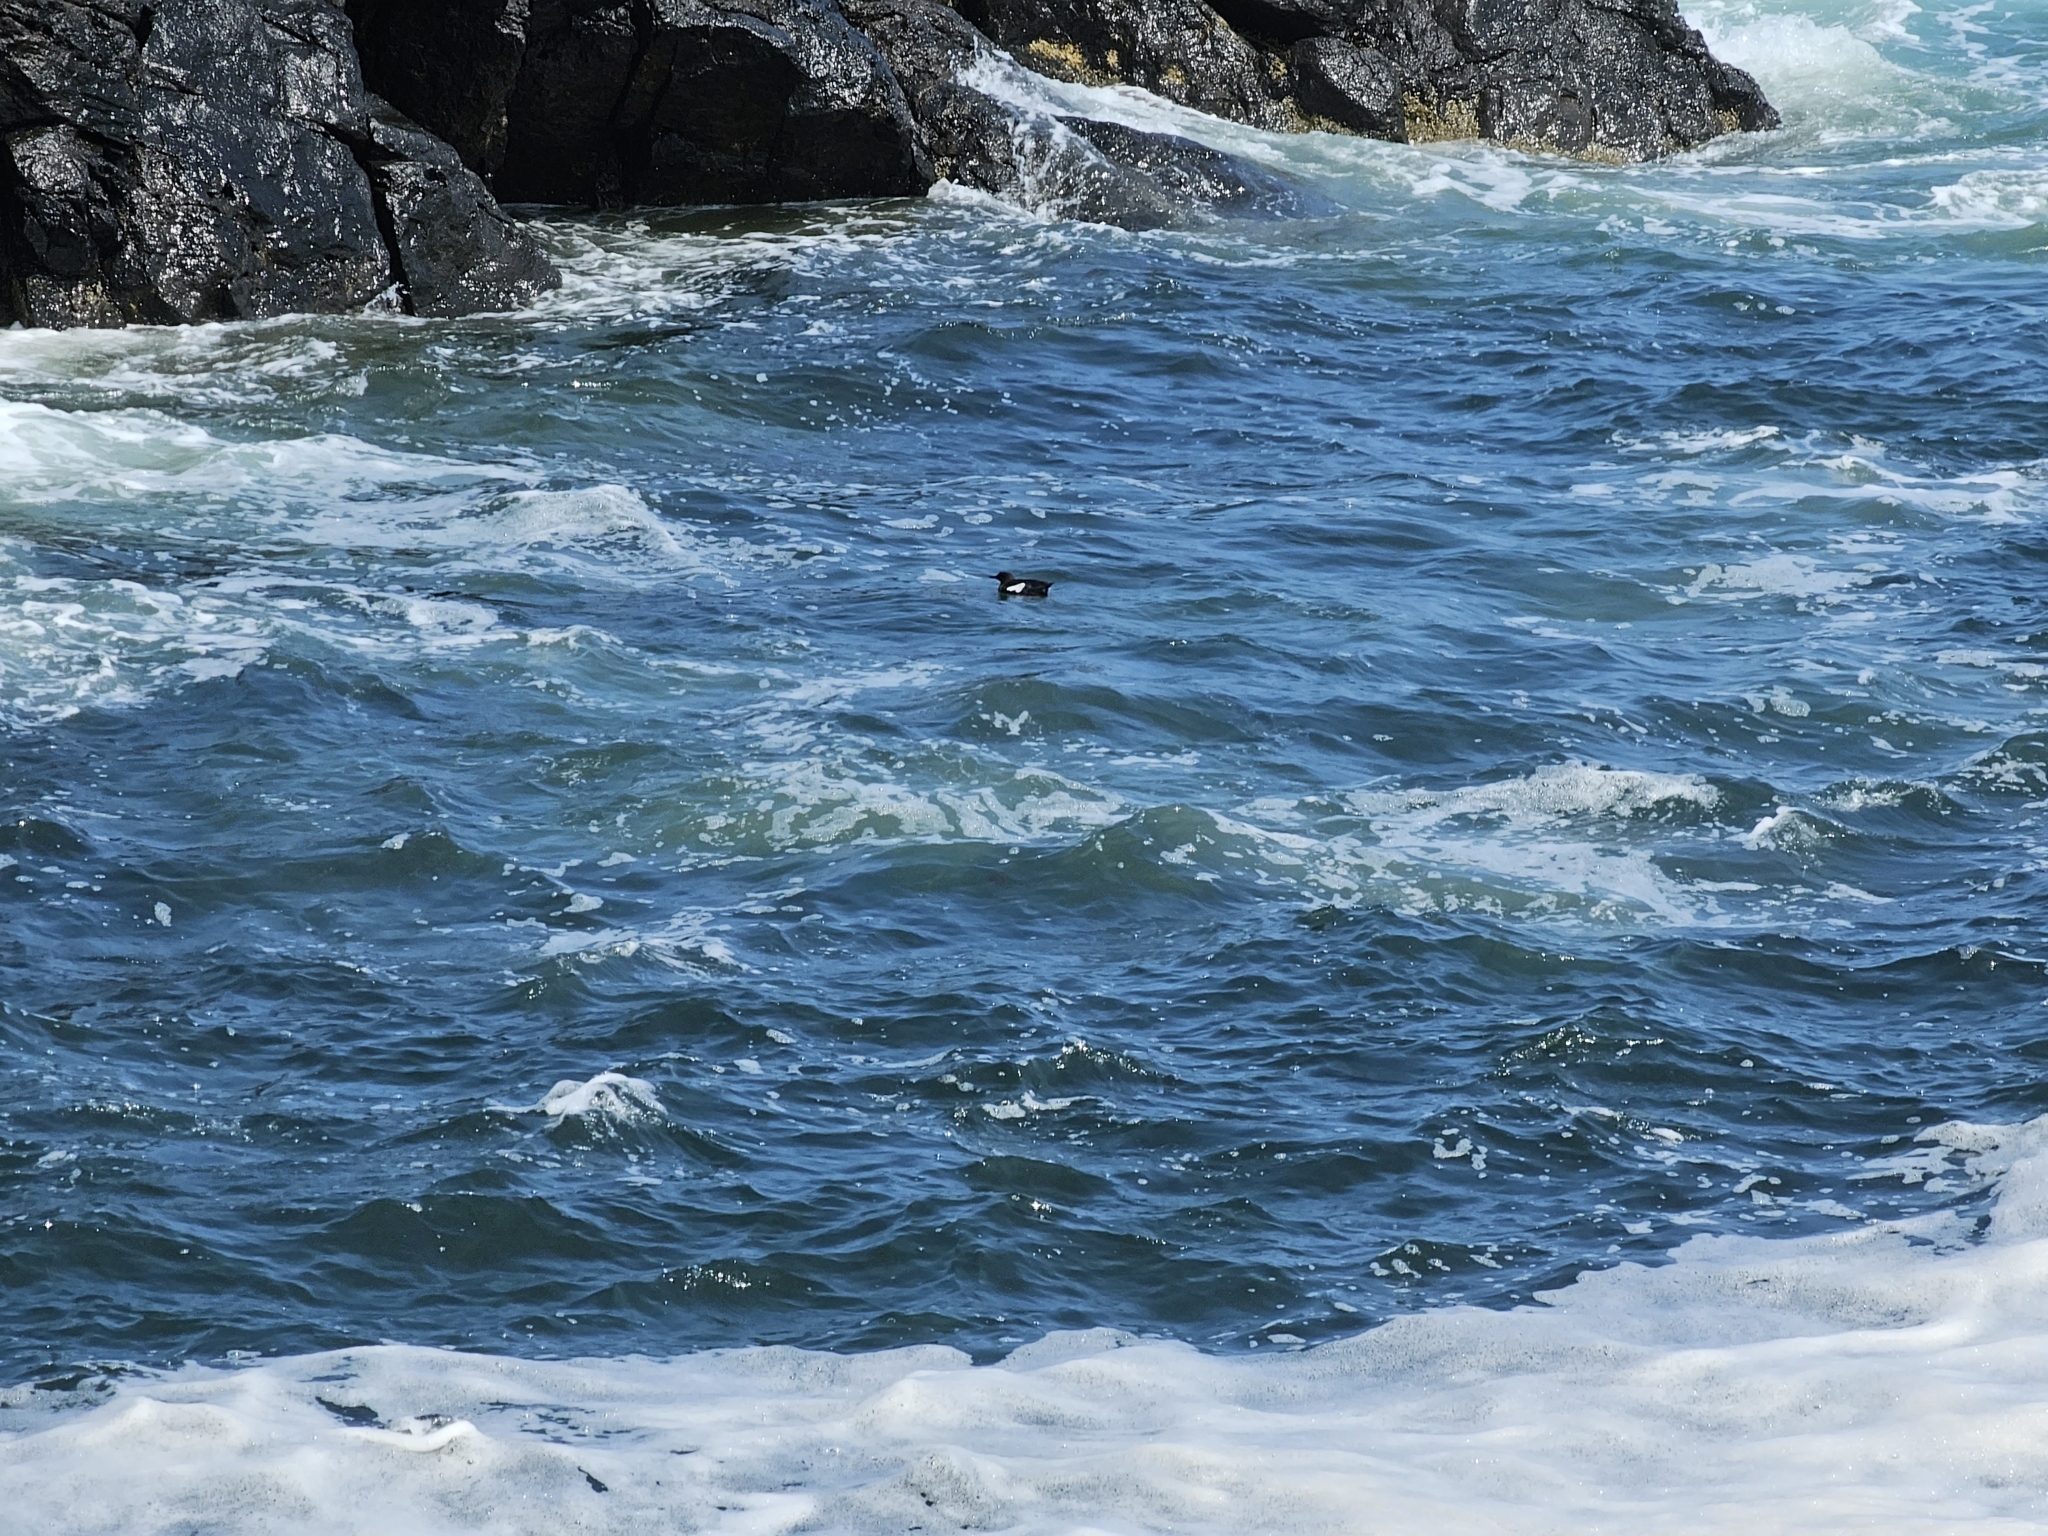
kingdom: Animalia
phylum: Chordata
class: Aves
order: Charadriiformes
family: Alcidae
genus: Cepphus
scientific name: Cepphus grylle
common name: Black guillemot
